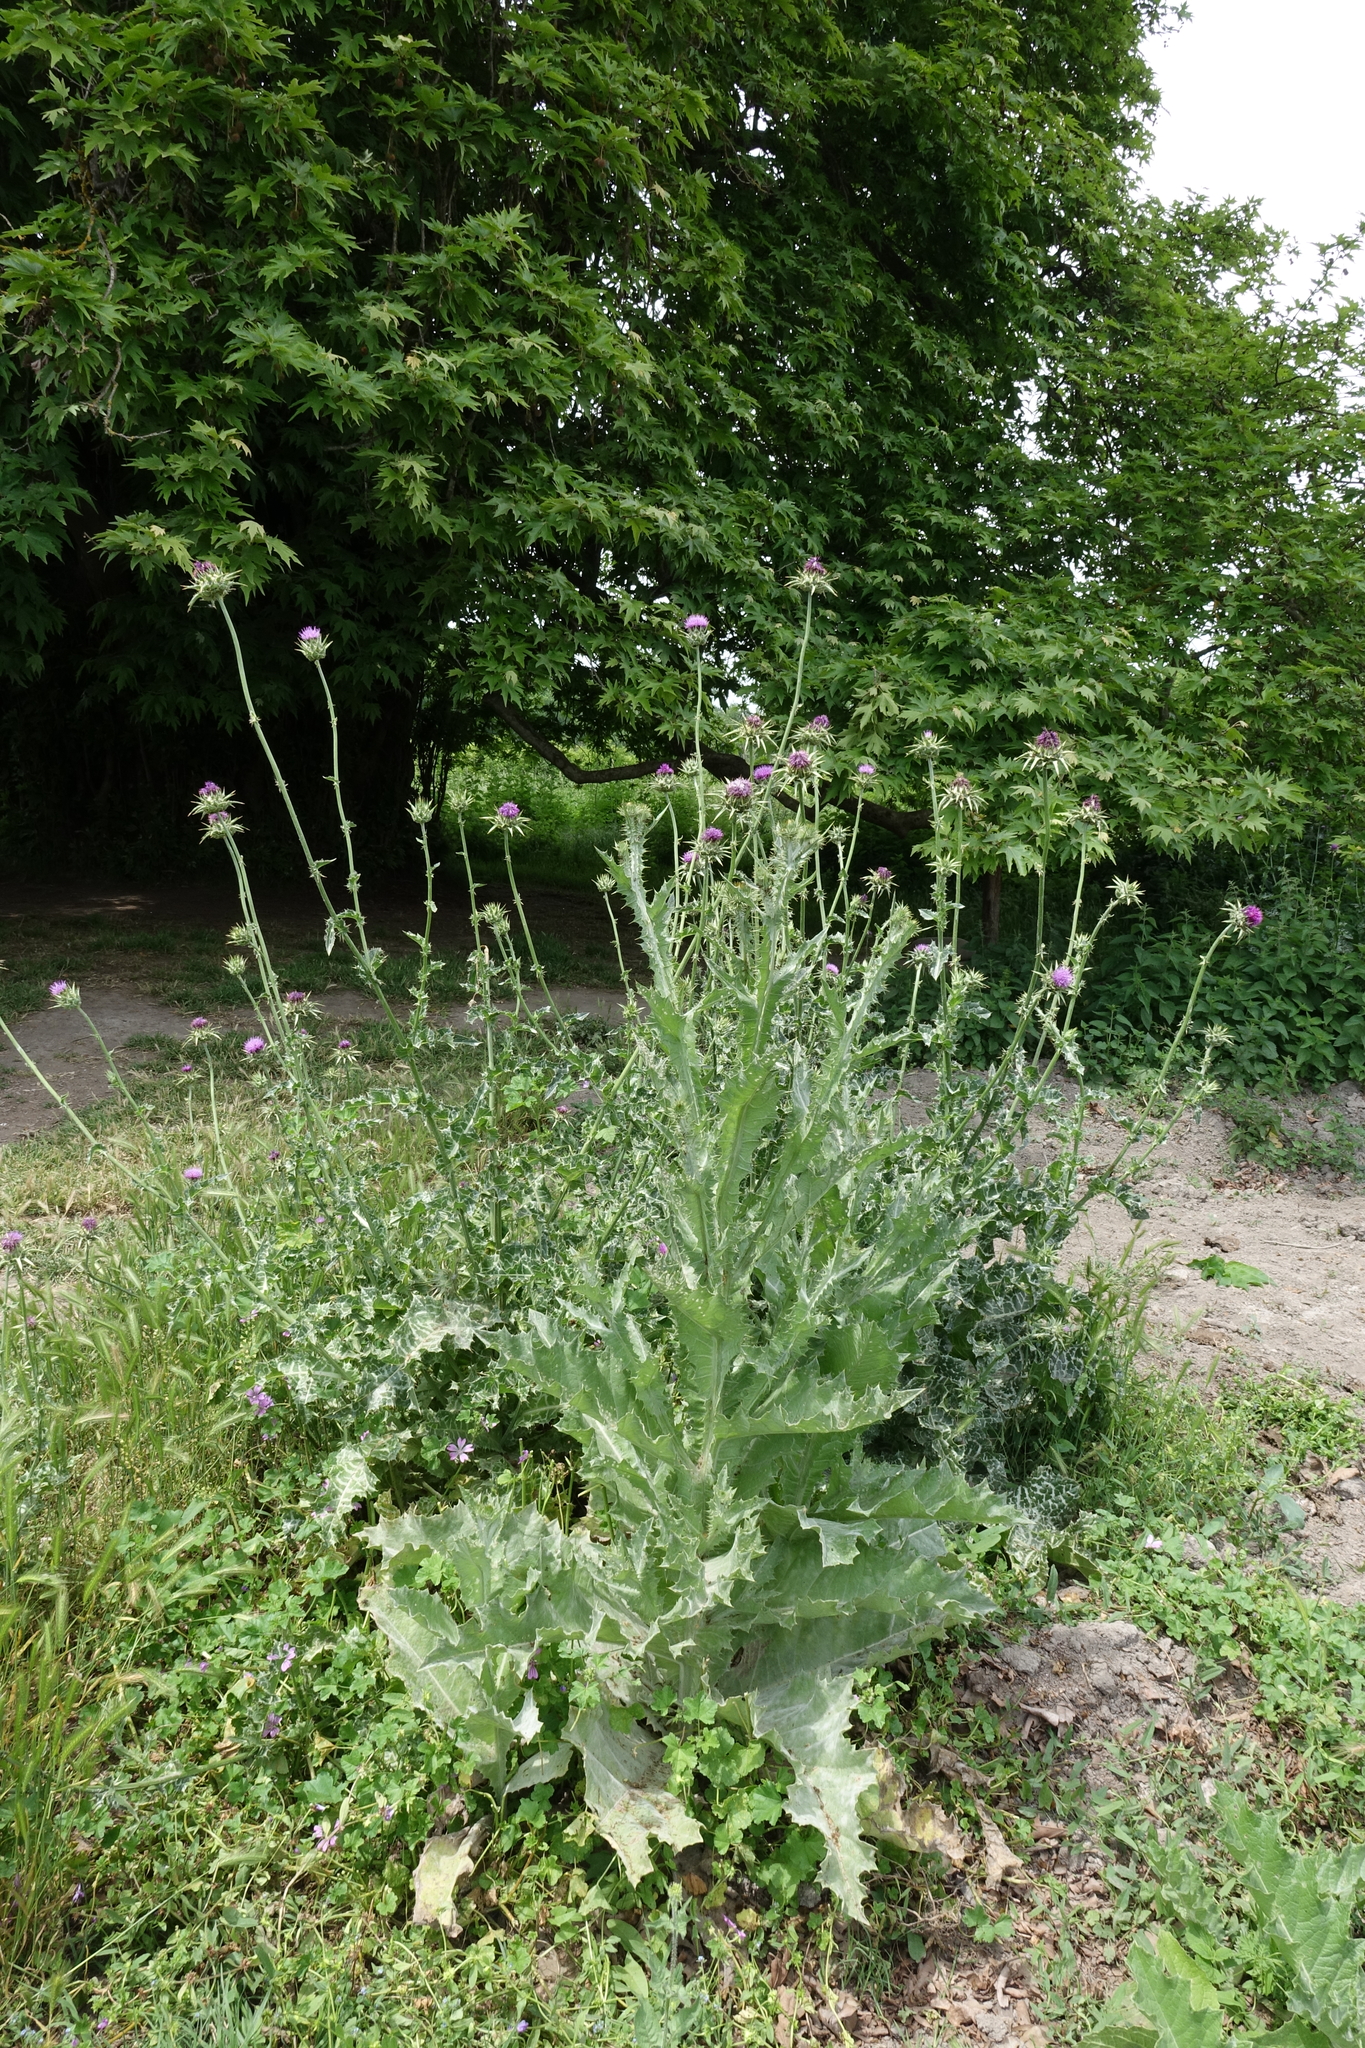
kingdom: Plantae
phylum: Tracheophyta
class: Magnoliopsida
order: Asterales
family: Asteraceae
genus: Silybum
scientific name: Silybum marianum
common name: Milk thistle
